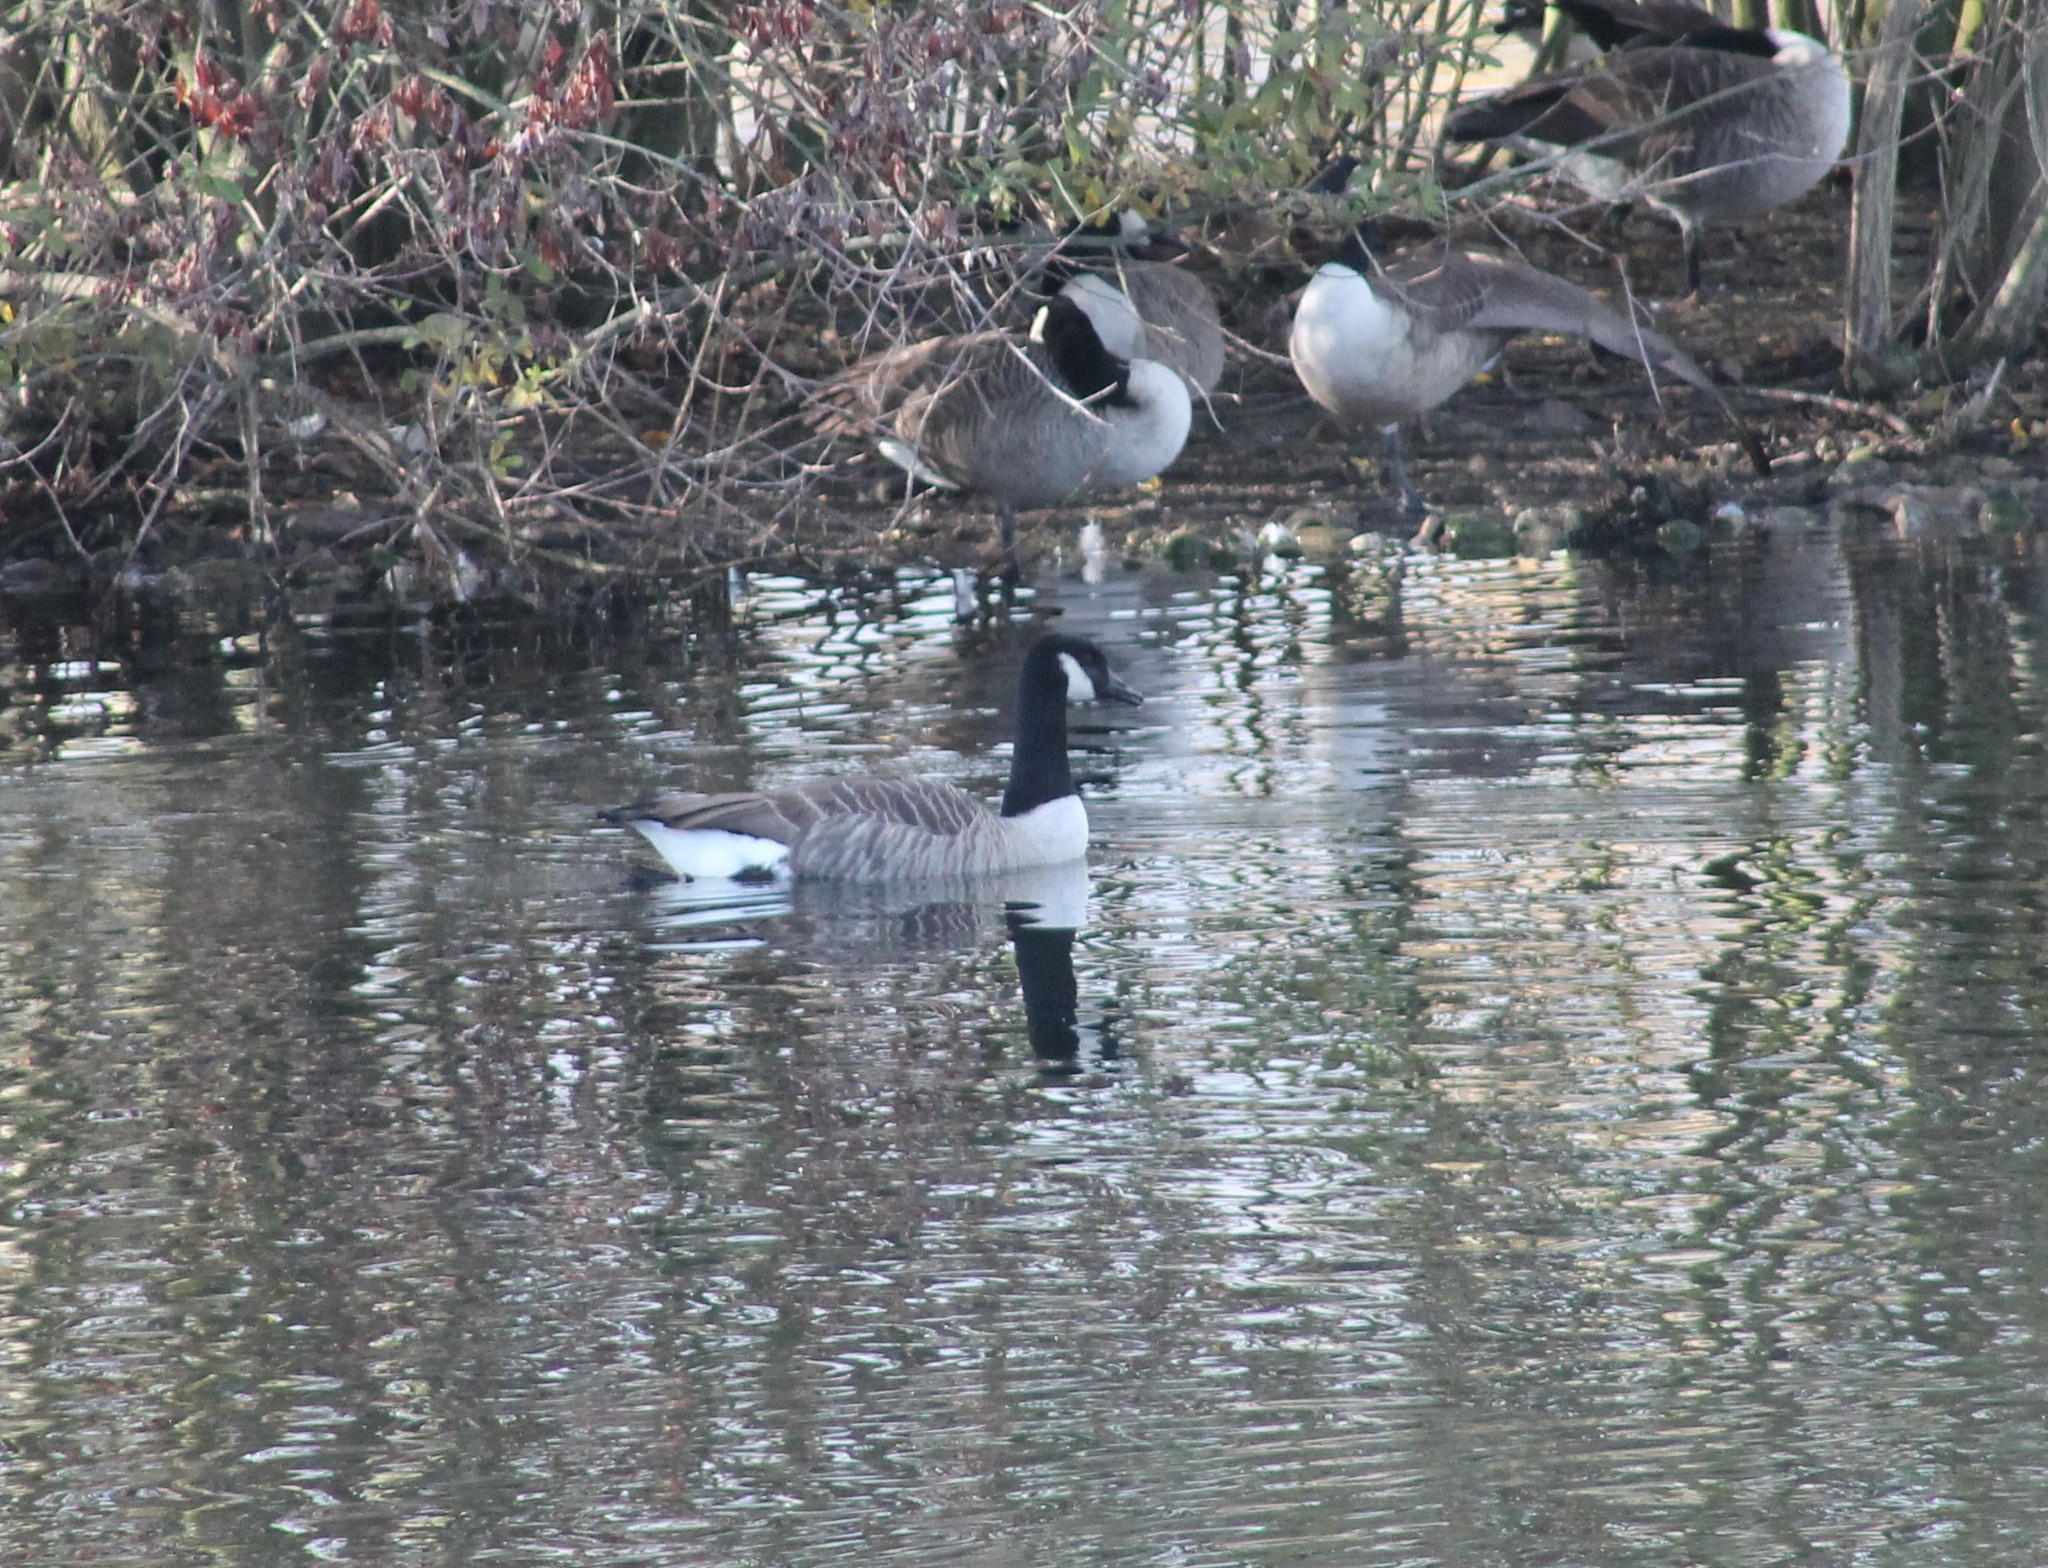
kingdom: Animalia
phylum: Chordata
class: Aves
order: Anseriformes
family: Anatidae
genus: Branta
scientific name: Branta canadensis
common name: Canada goose
